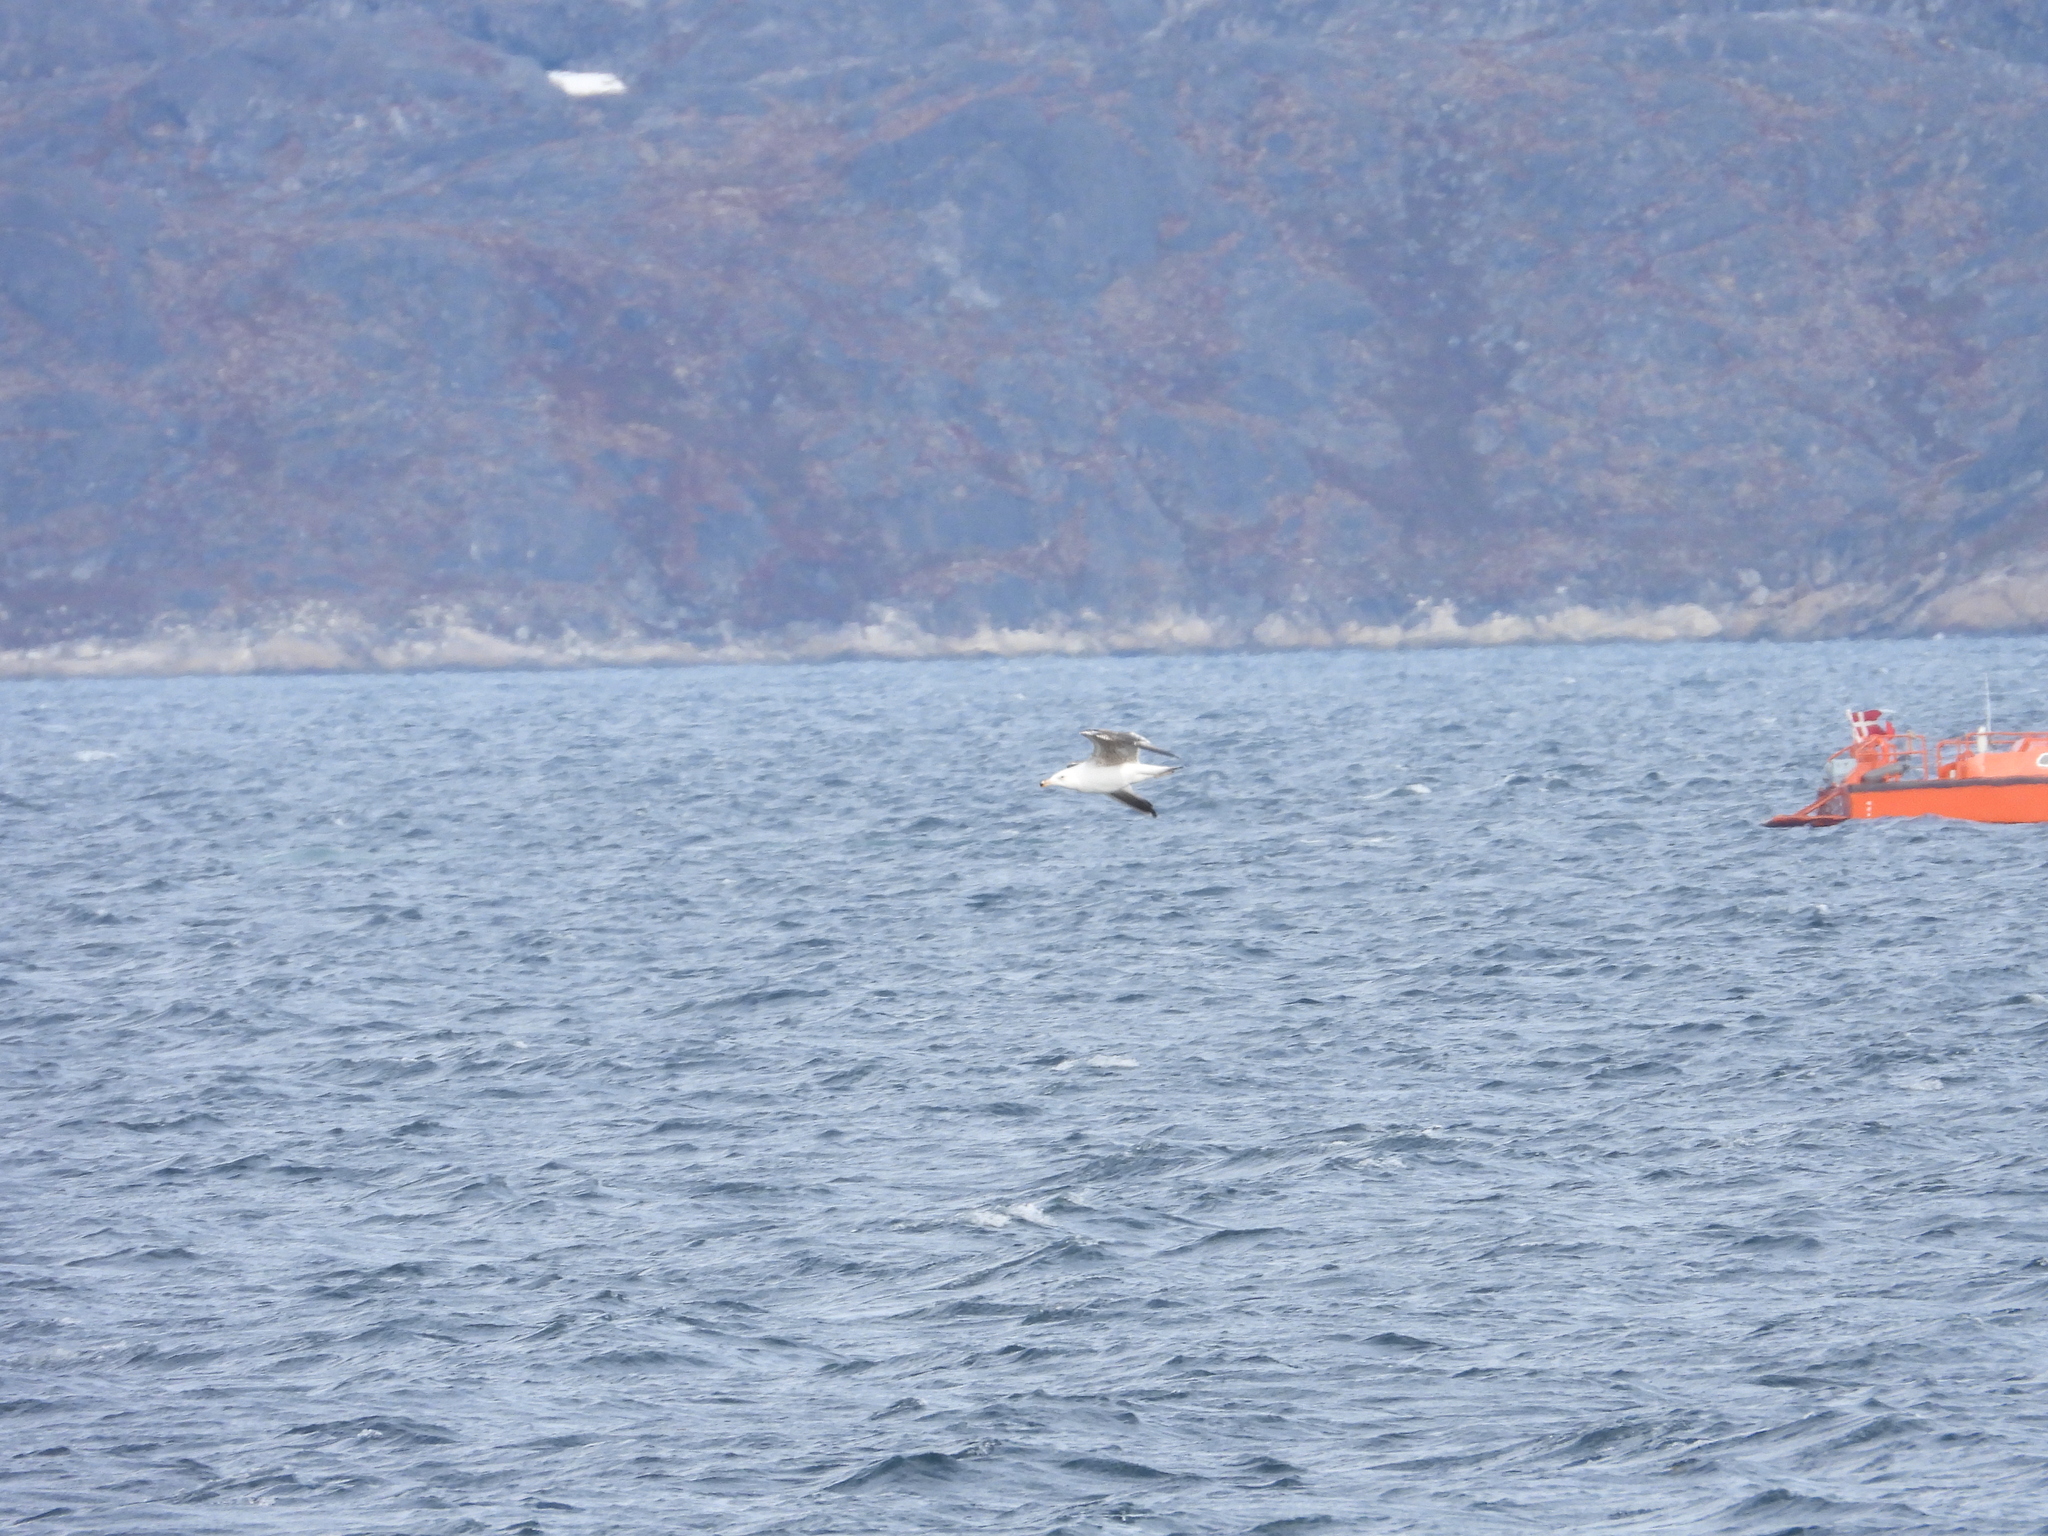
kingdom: Animalia
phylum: Chordata
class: Aves
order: Charadriiformes
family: Laridae
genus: Larus
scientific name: Larus marinus
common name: Great black-backed gull
